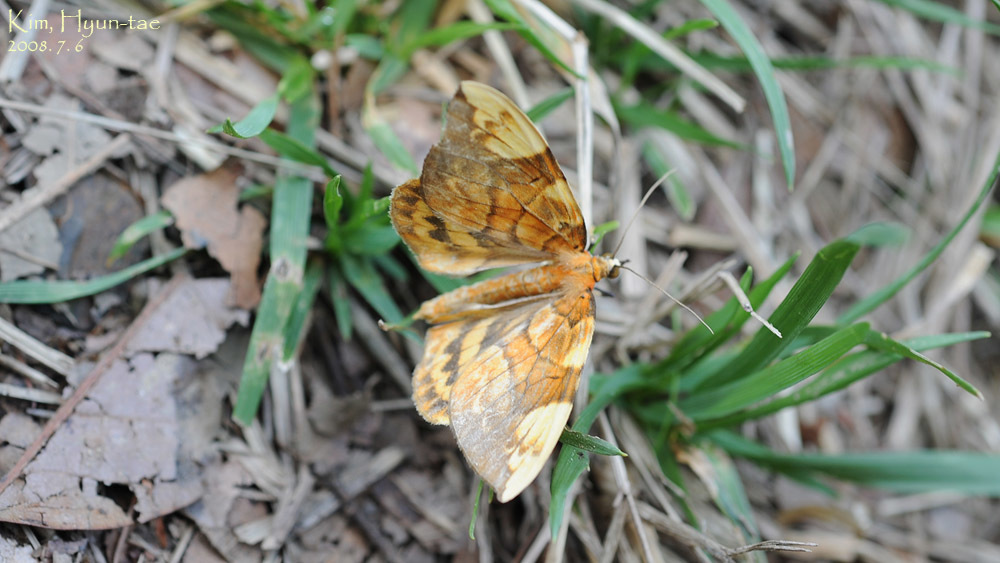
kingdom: Animalia
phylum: Arthropoda
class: Insecta
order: Lepidoptera
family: Geometridae
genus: Gandaritis
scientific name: Gandaritis fixseni
